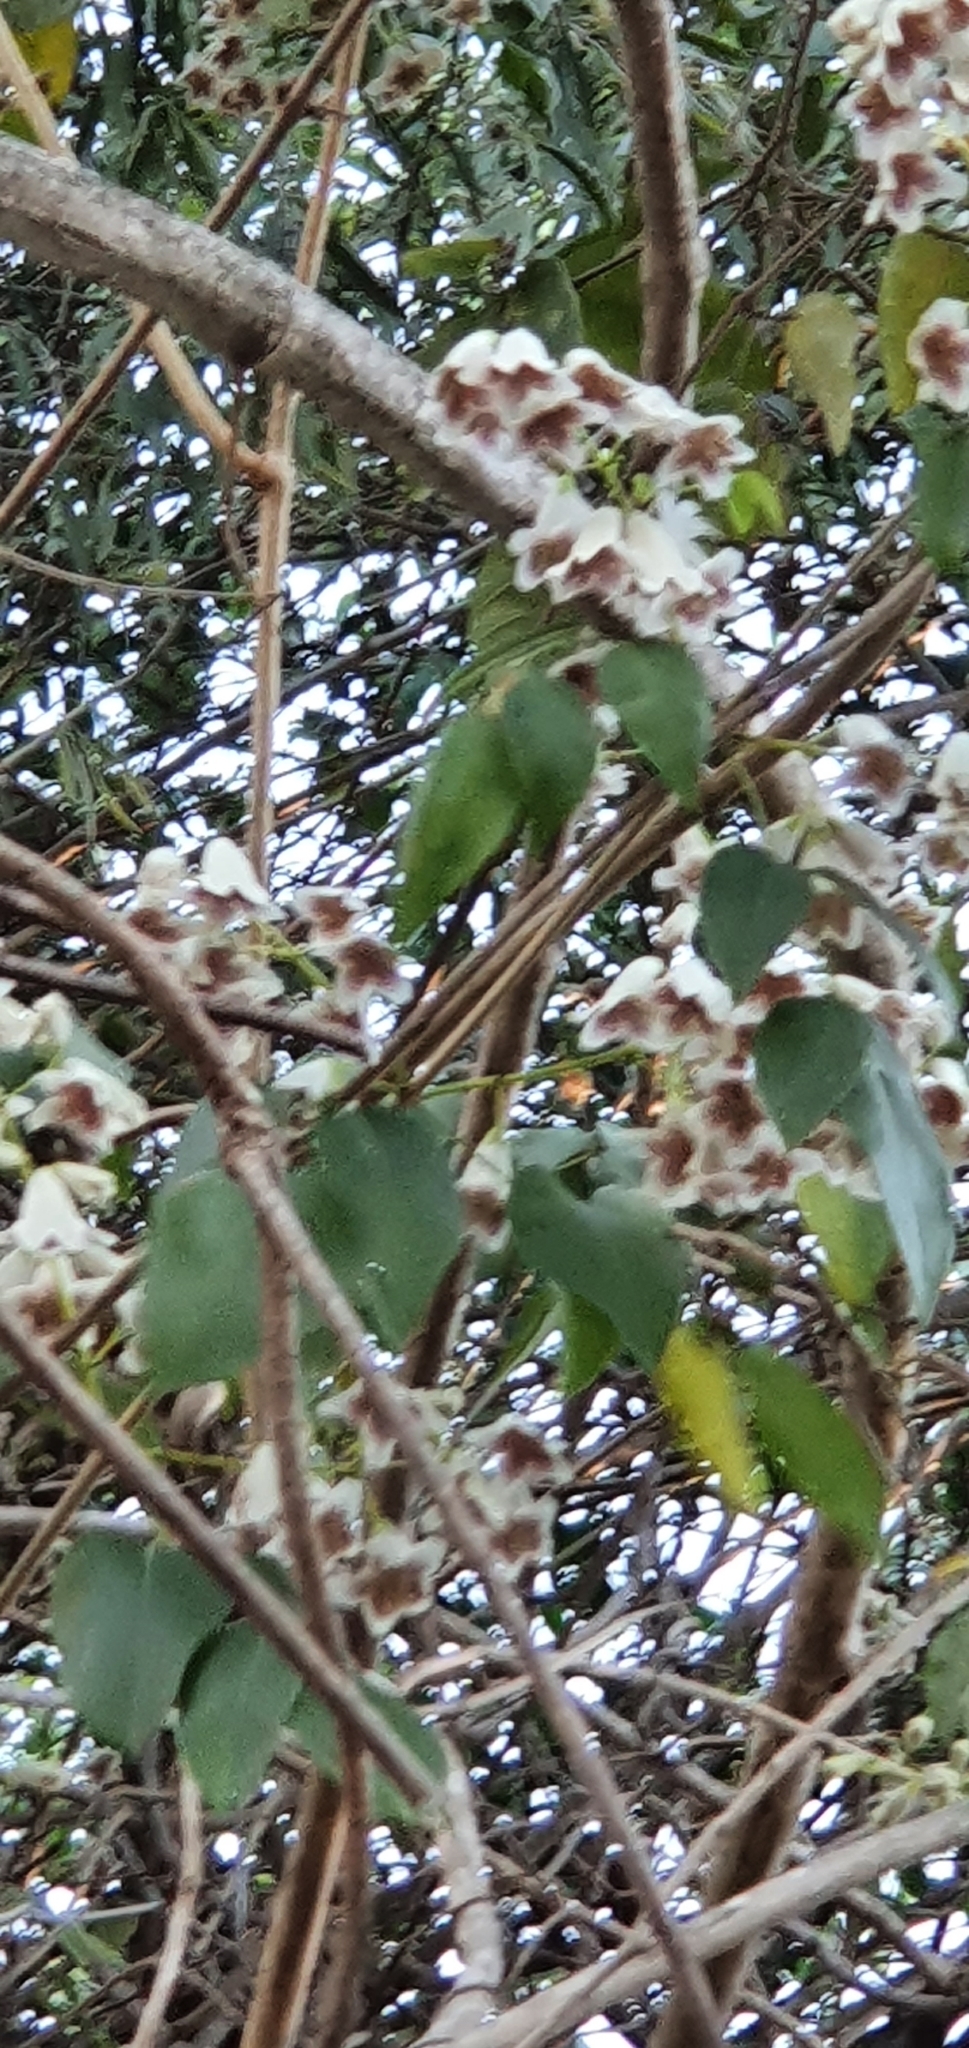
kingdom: Plantae
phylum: Tracheophyta
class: Magnoliopsida
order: Lamiales
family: Bignoniaceae
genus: Pandorea
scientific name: Pandorea pandorana
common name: Wonga-wonga-vine
